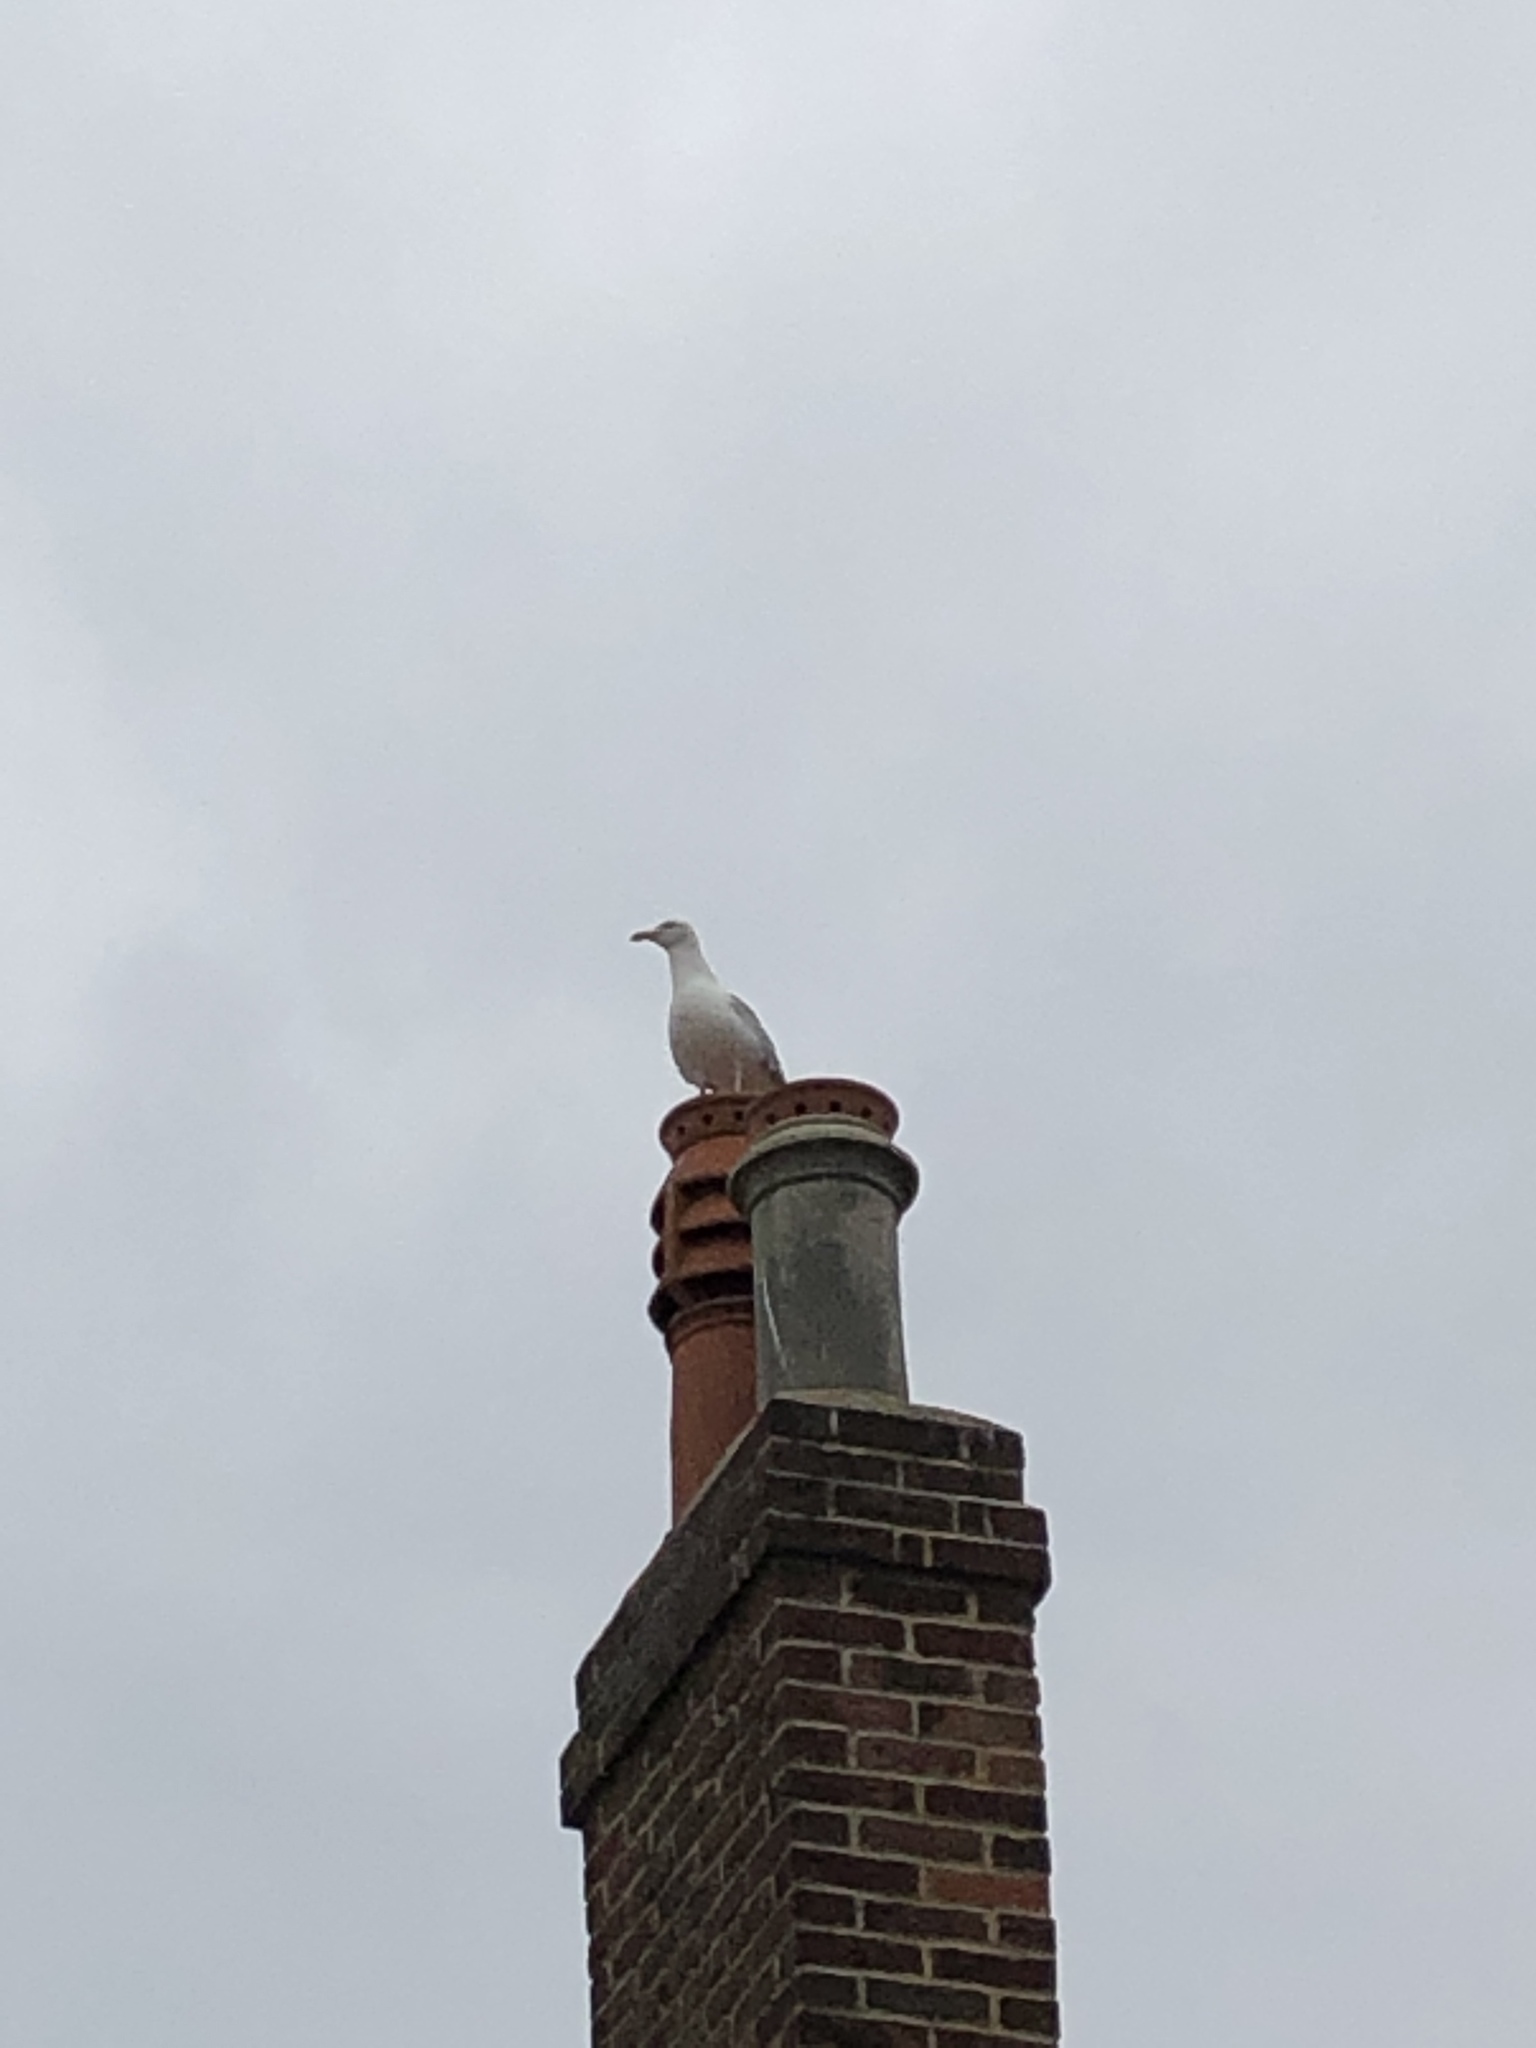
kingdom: Animalia
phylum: Chordata
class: Aves
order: Charadriiformes
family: Laridae
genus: Larus
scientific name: Larus argentatus
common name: Herring gull
